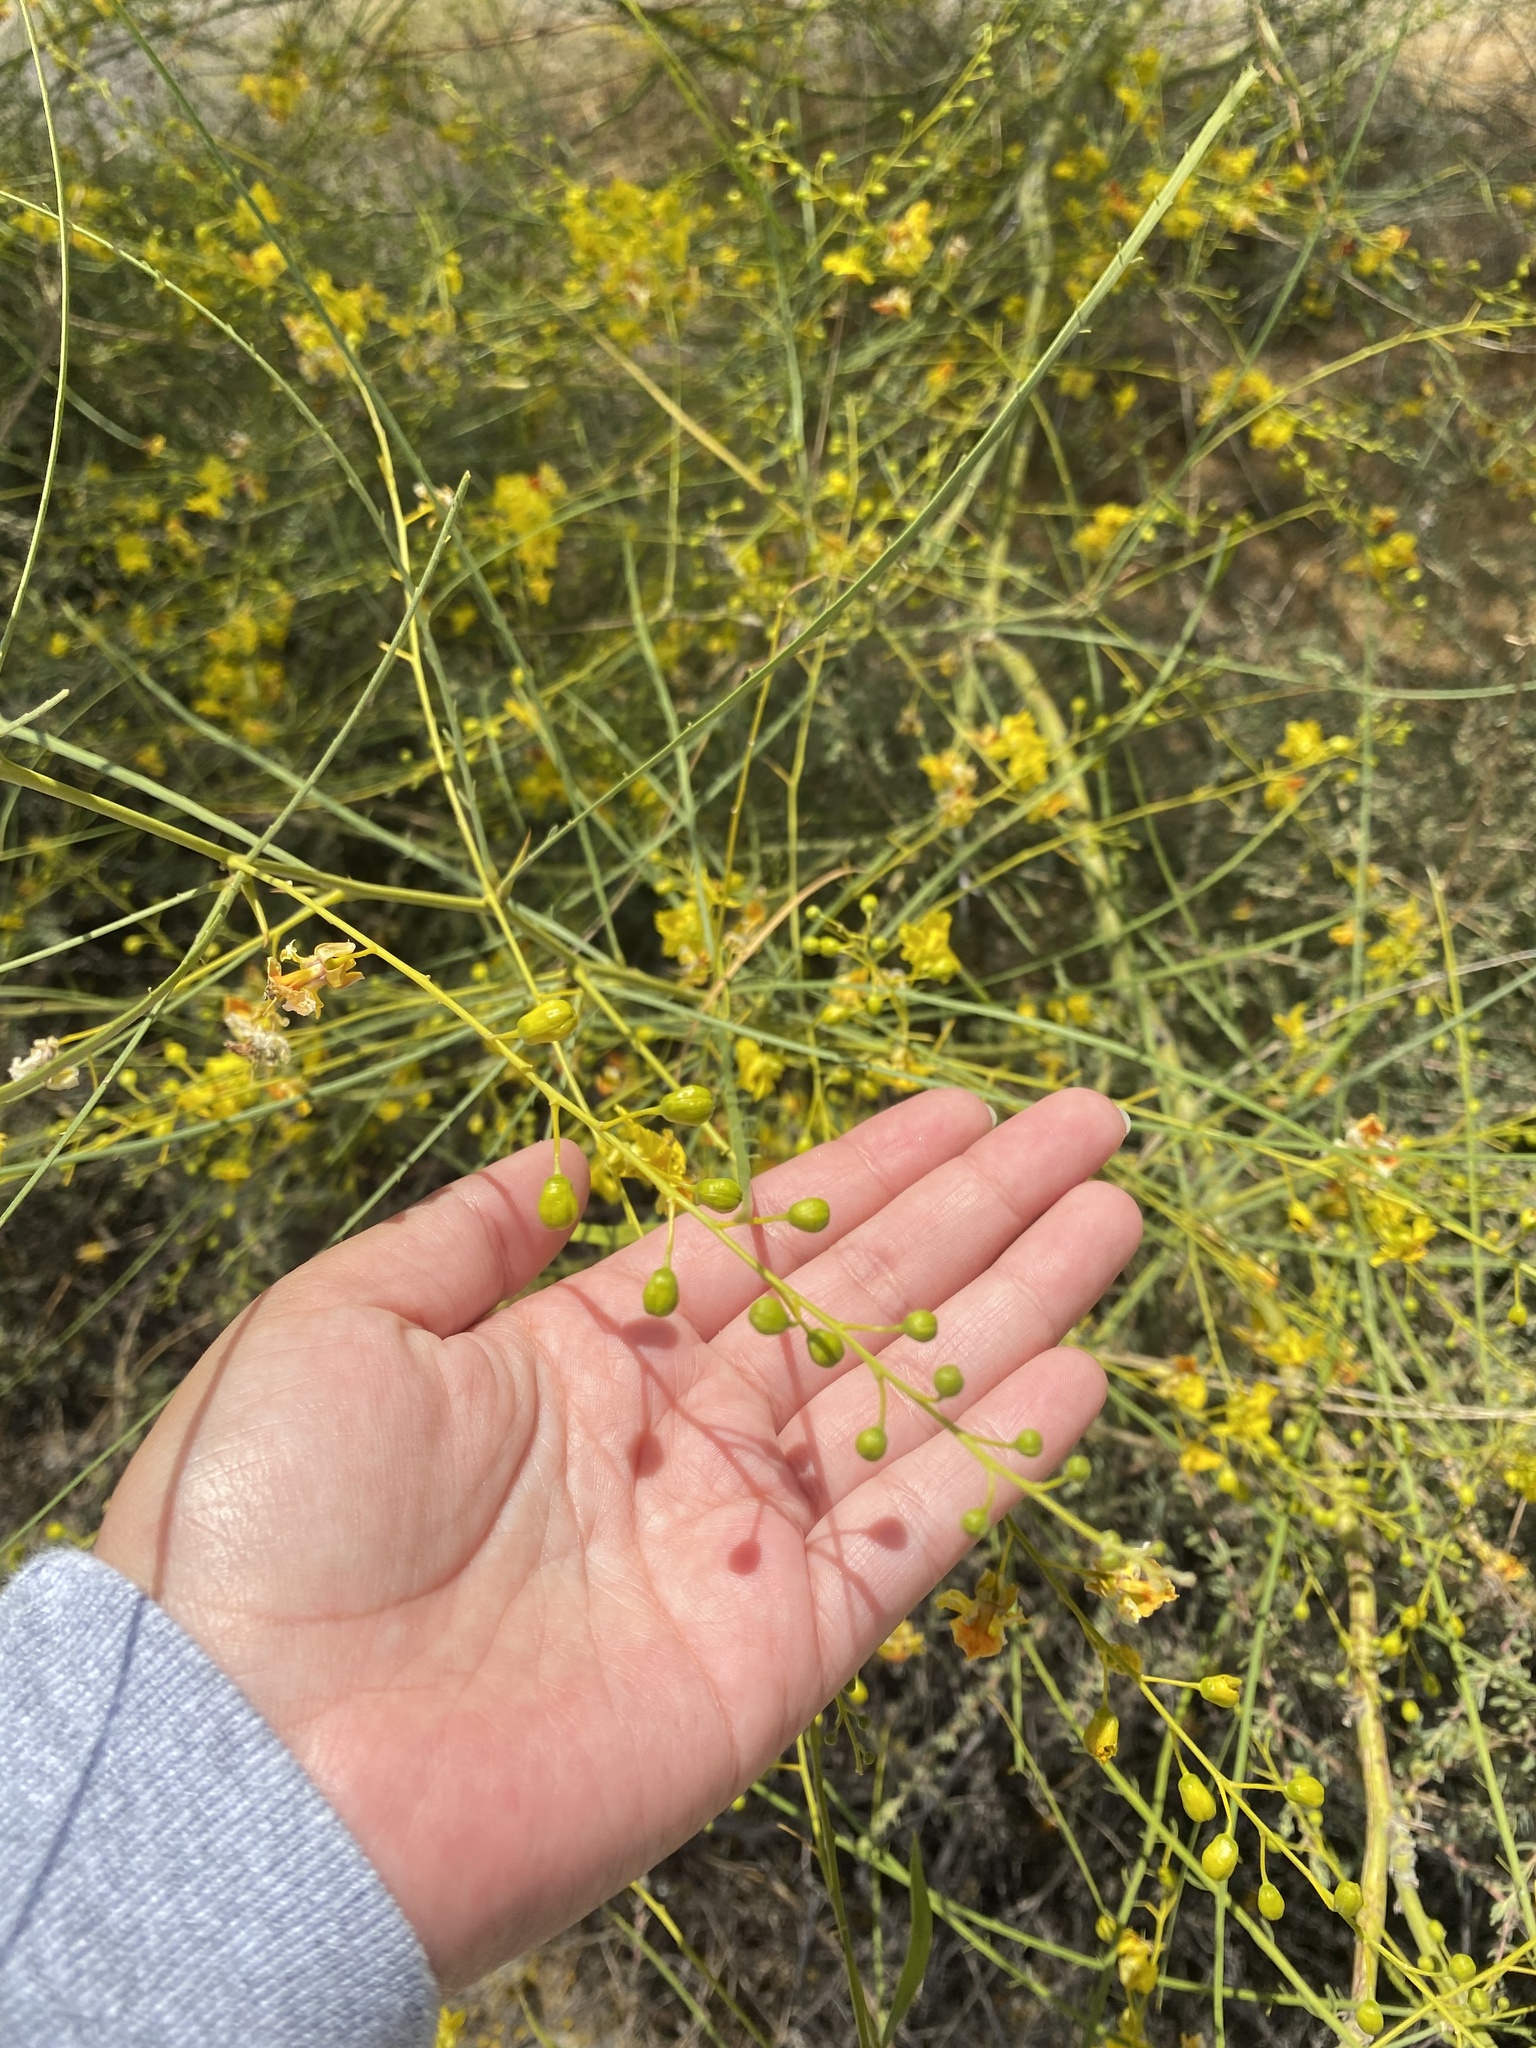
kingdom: Plantae
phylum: Tracheophyta
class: Magnoliopsida
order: Fabales
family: Fabaceae
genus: Parkinsonia
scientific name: Parkinsonia aculeata
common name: Jerusalem thorn
